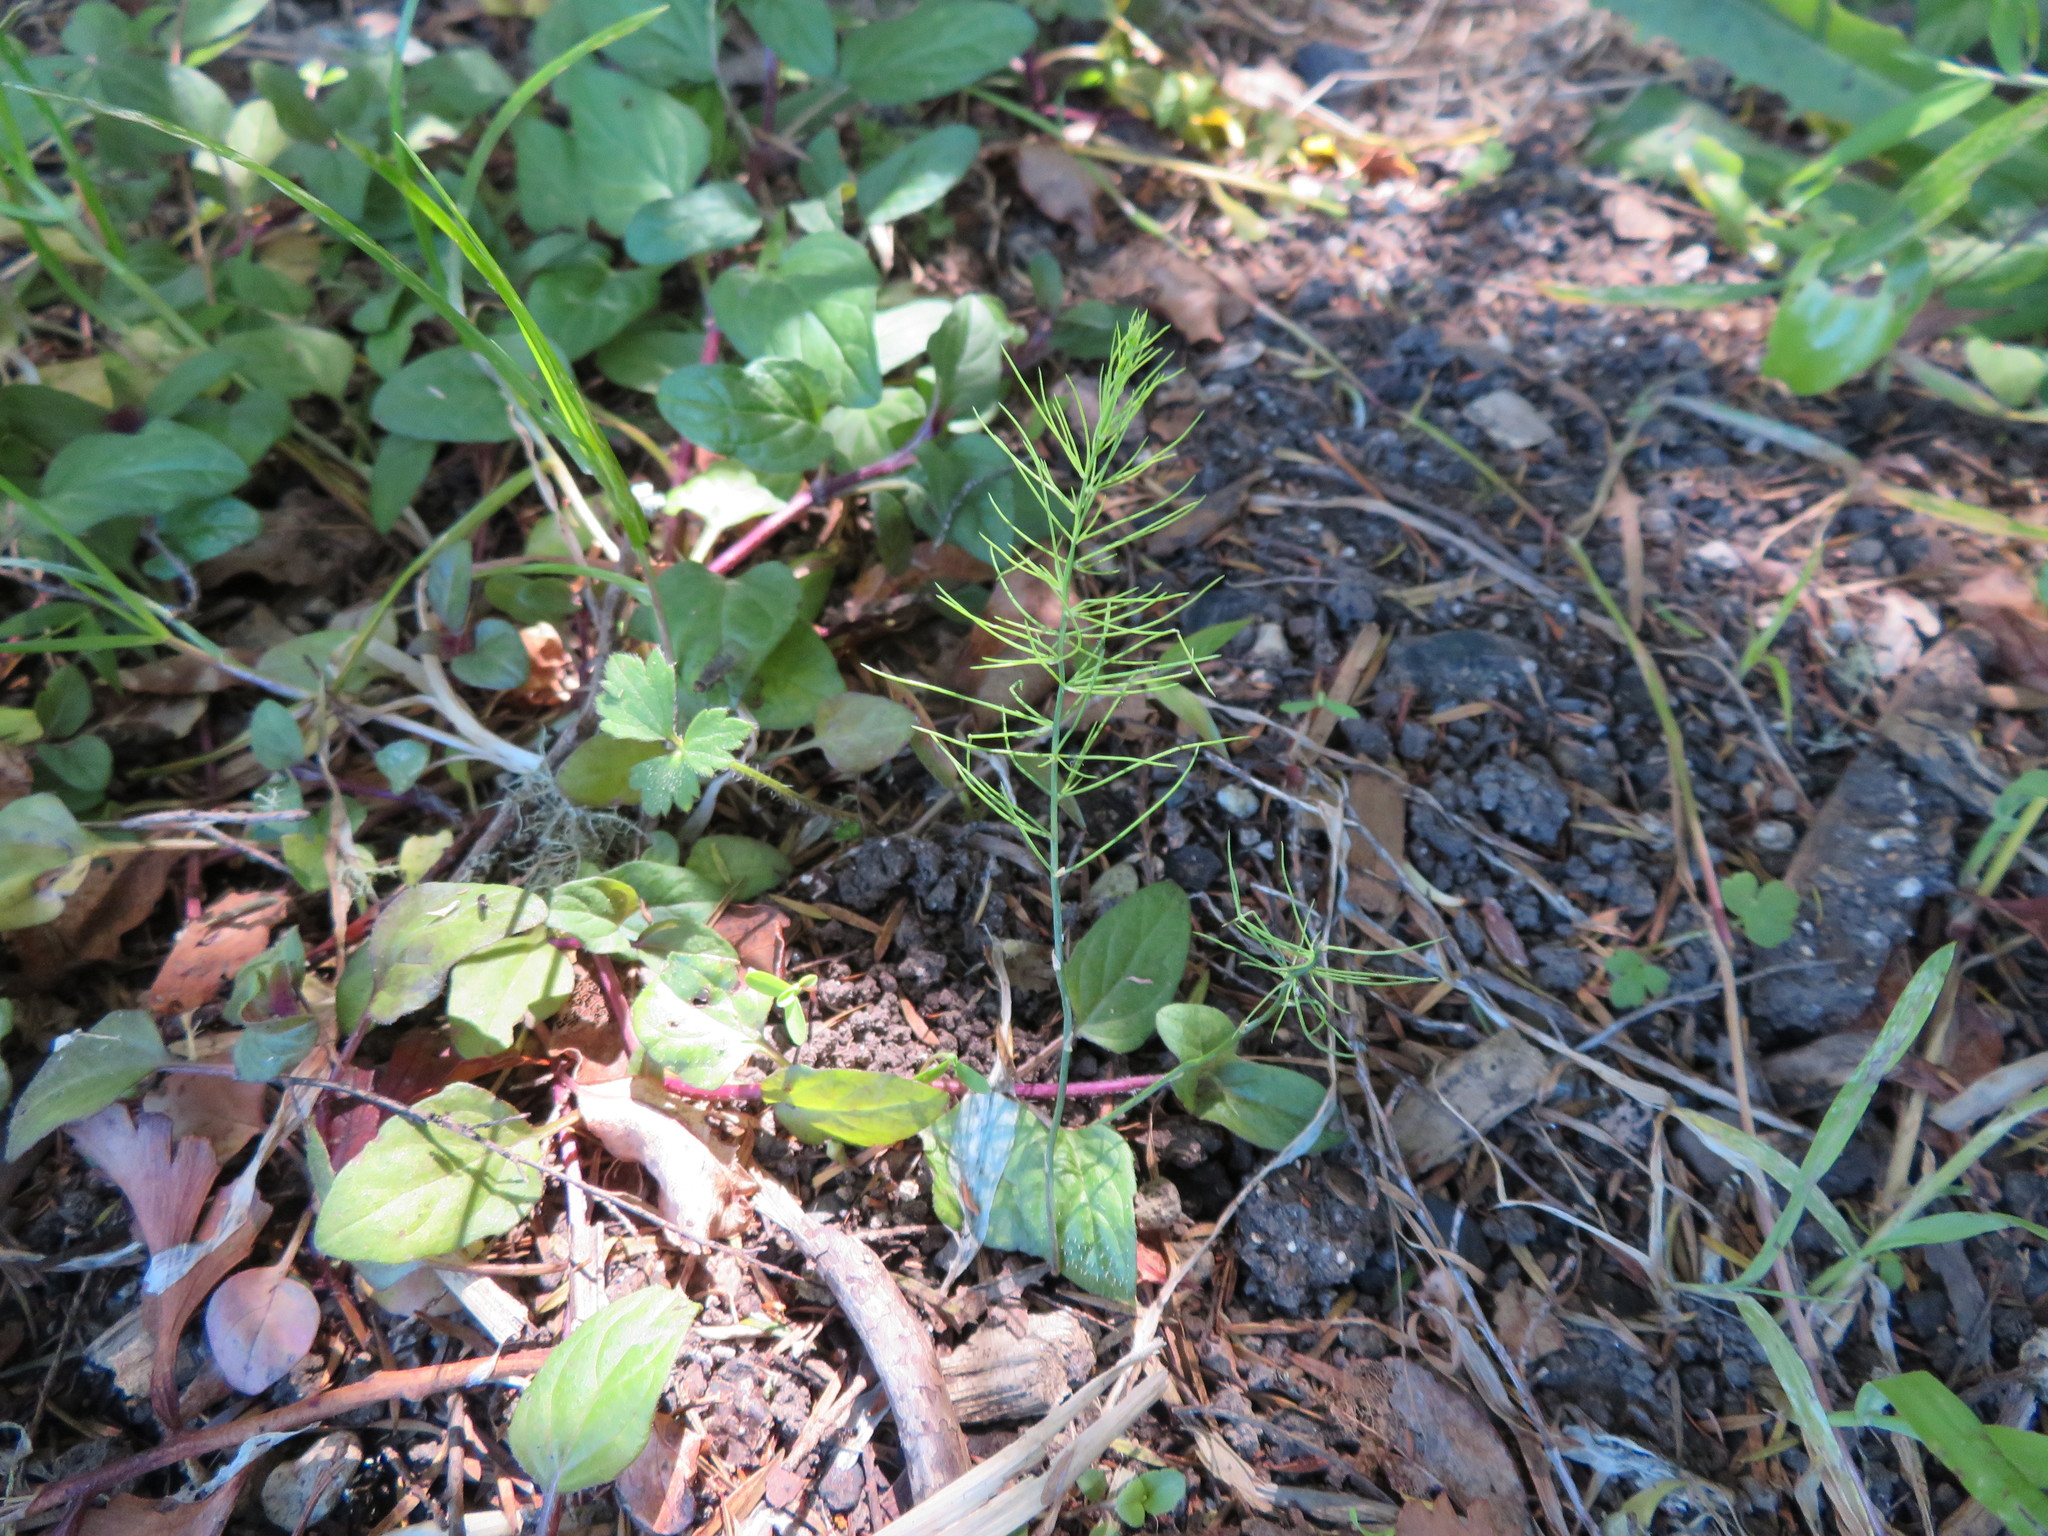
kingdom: Plantae
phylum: Tracheophyta
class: Liliopsida
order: Asparagales
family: Asparagaceae
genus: Asparagus
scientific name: Asparagus officinalis
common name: Garden asparagus
